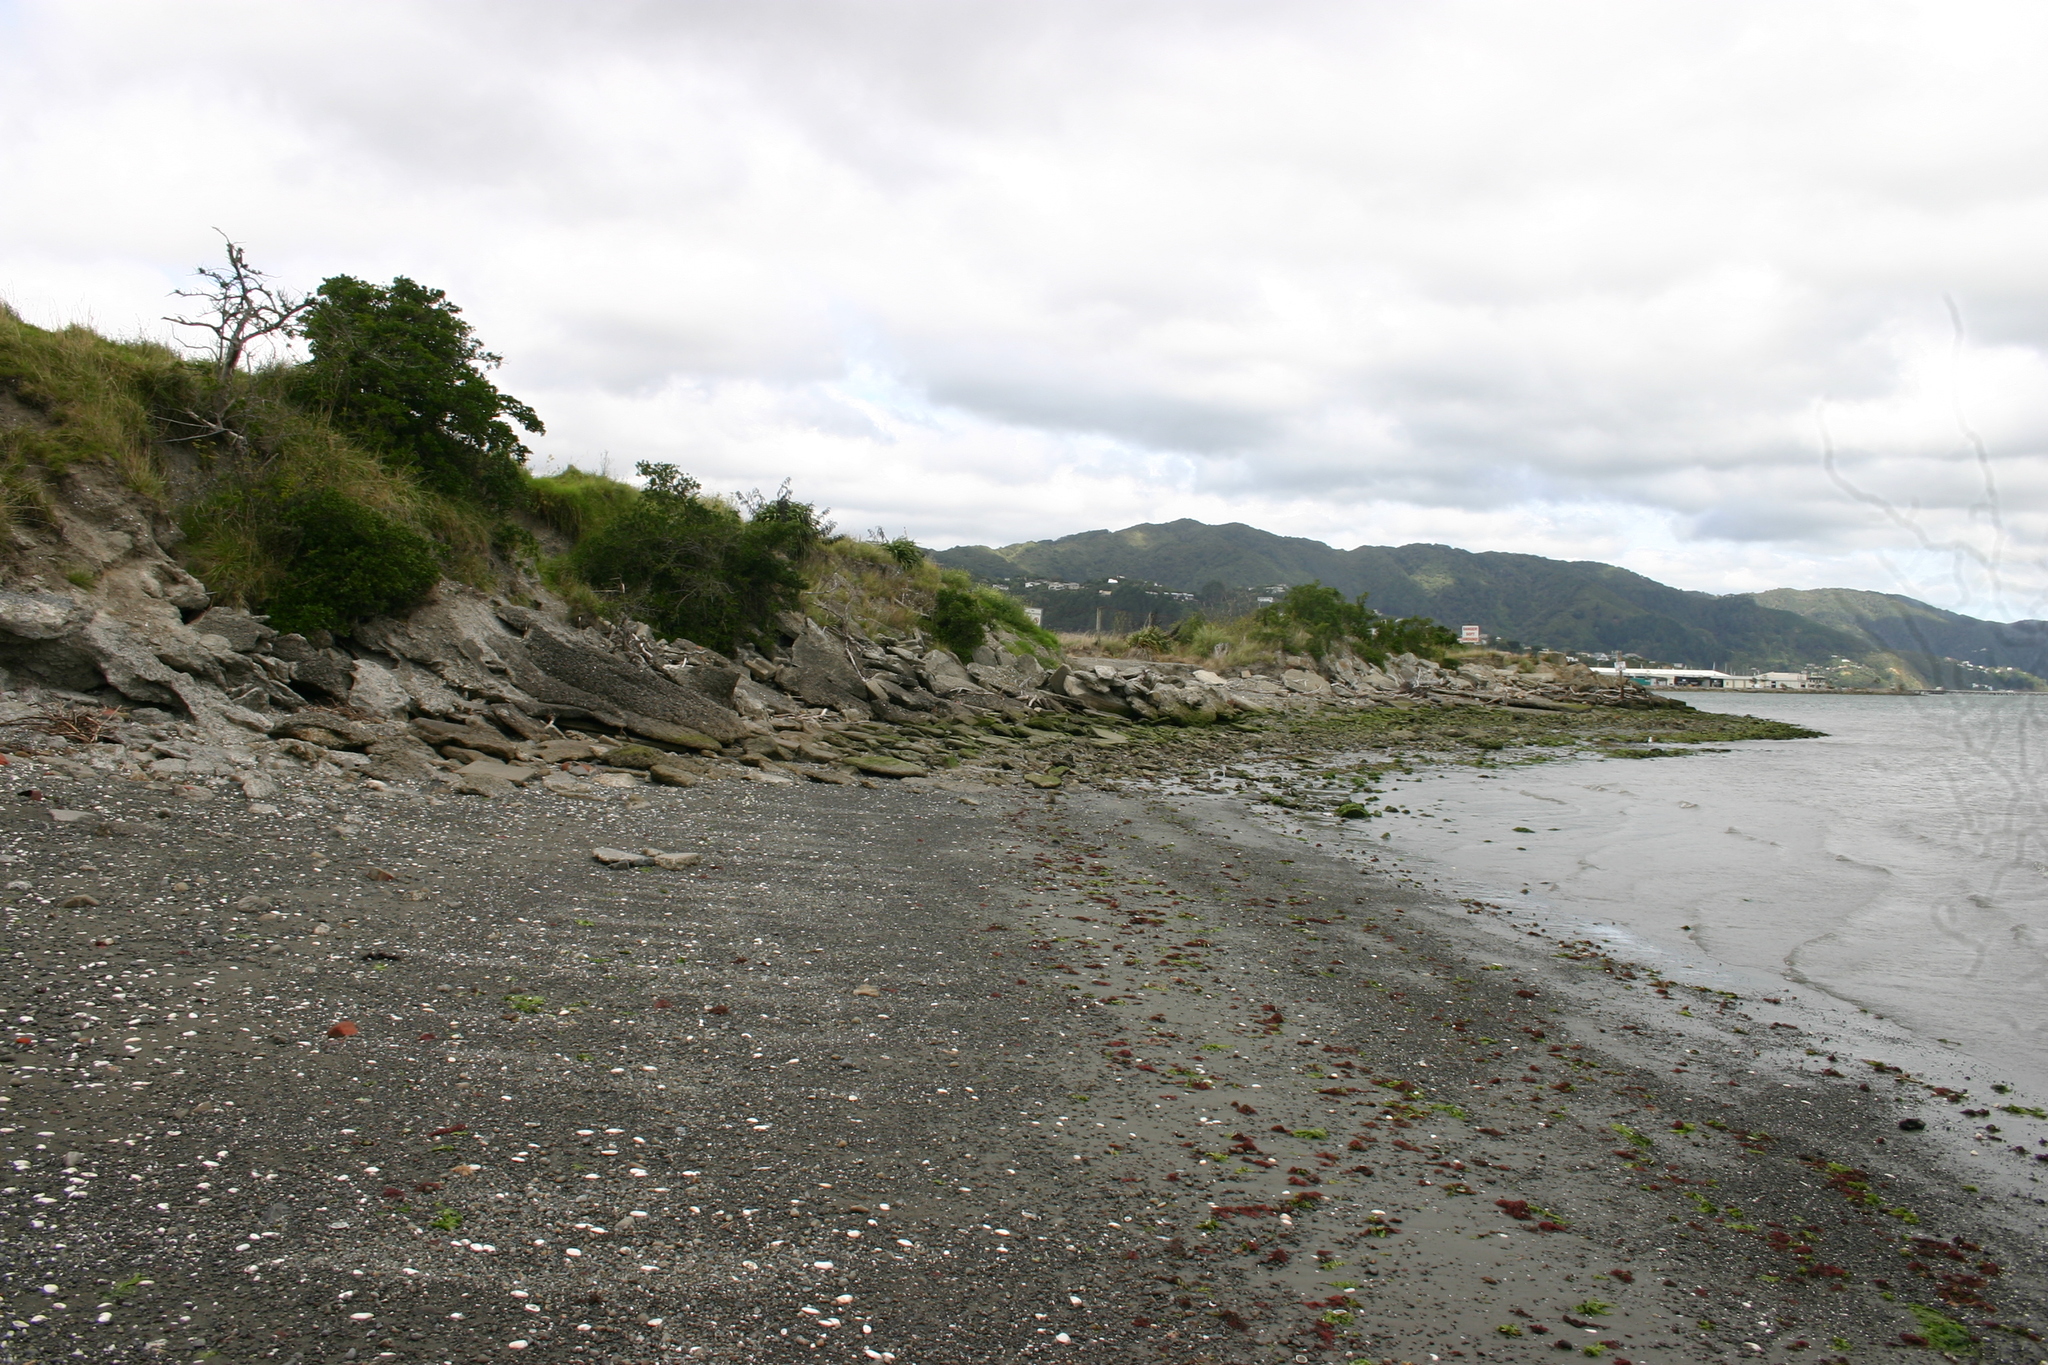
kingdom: Plantae
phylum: Chlorophyta
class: Ulvophyceae
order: Ulvales
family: Ulvaceae
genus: Ulva
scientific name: Ulva
